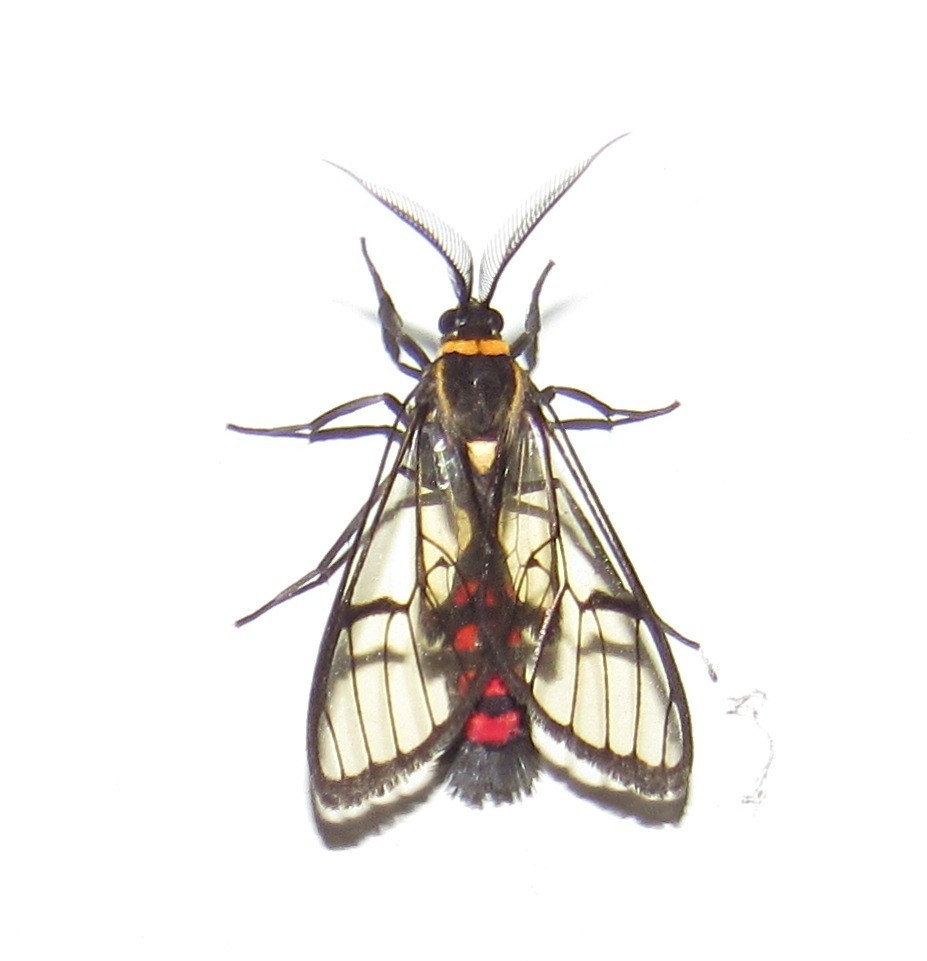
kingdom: Animalia
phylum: Arthropoda
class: Insecta
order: Lepidoptera
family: Erebidae
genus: Argyroeides
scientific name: Argyroeides sanguinea
